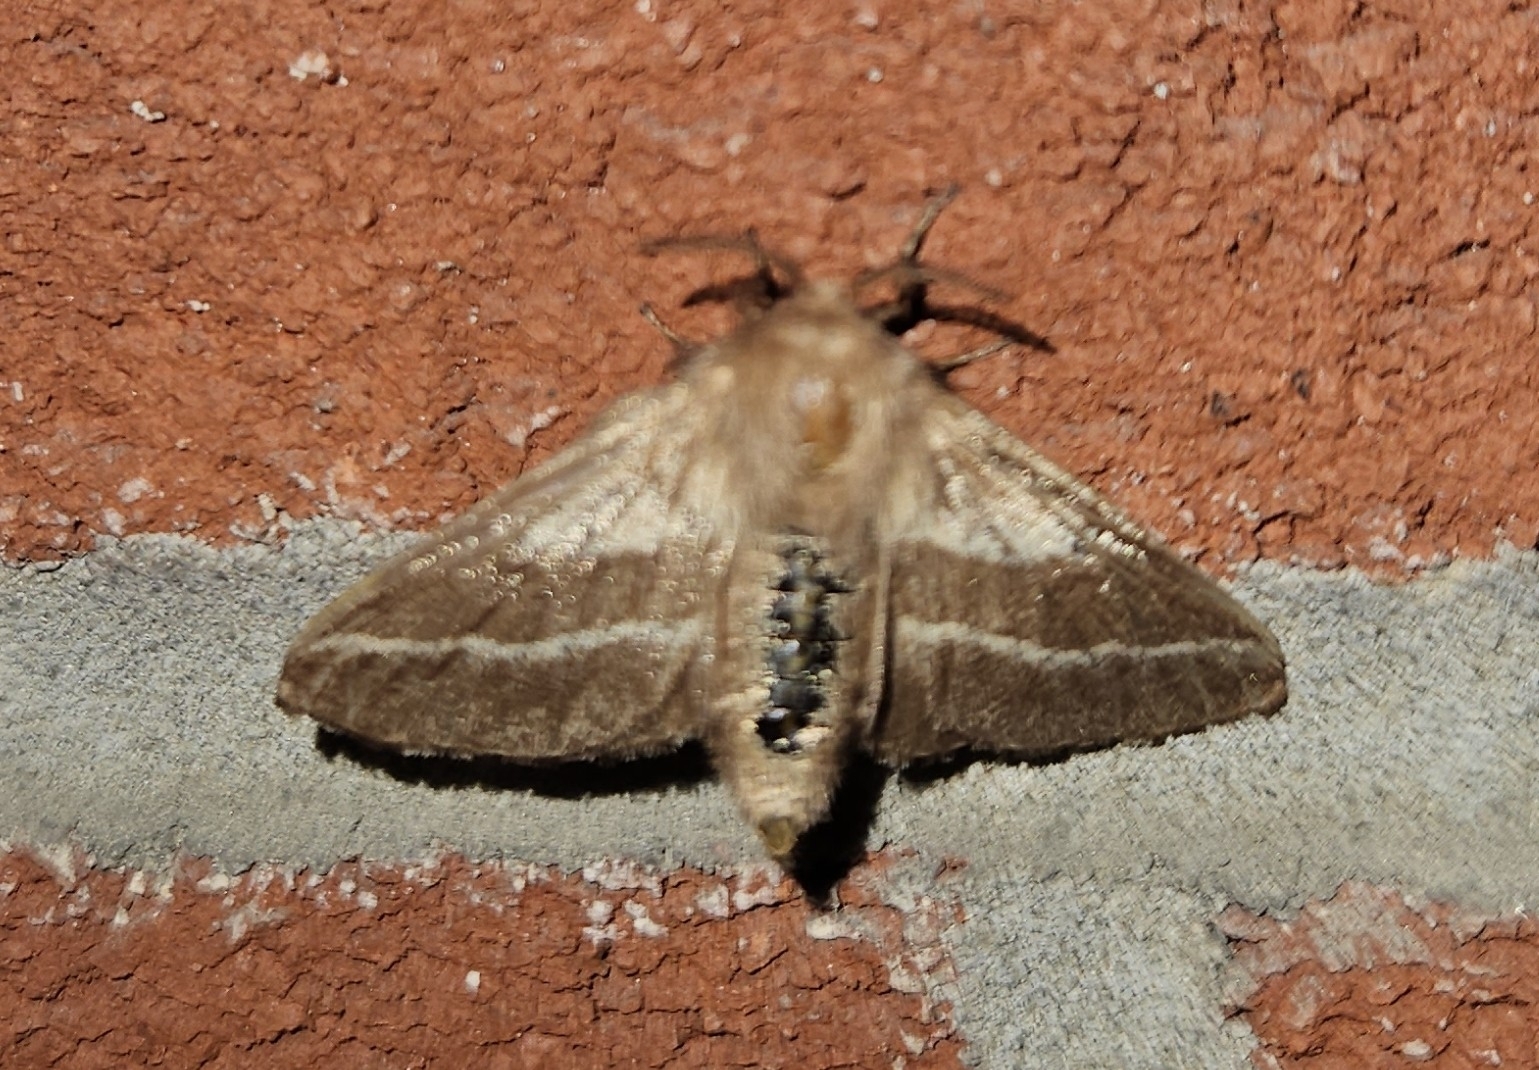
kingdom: Animalia
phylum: Arthropoda
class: Insecta
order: Lepidoptera
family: Lasiocampidae
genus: Malacosoma
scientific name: Malacosoma americana
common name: Eastern tent caterpillar moth
